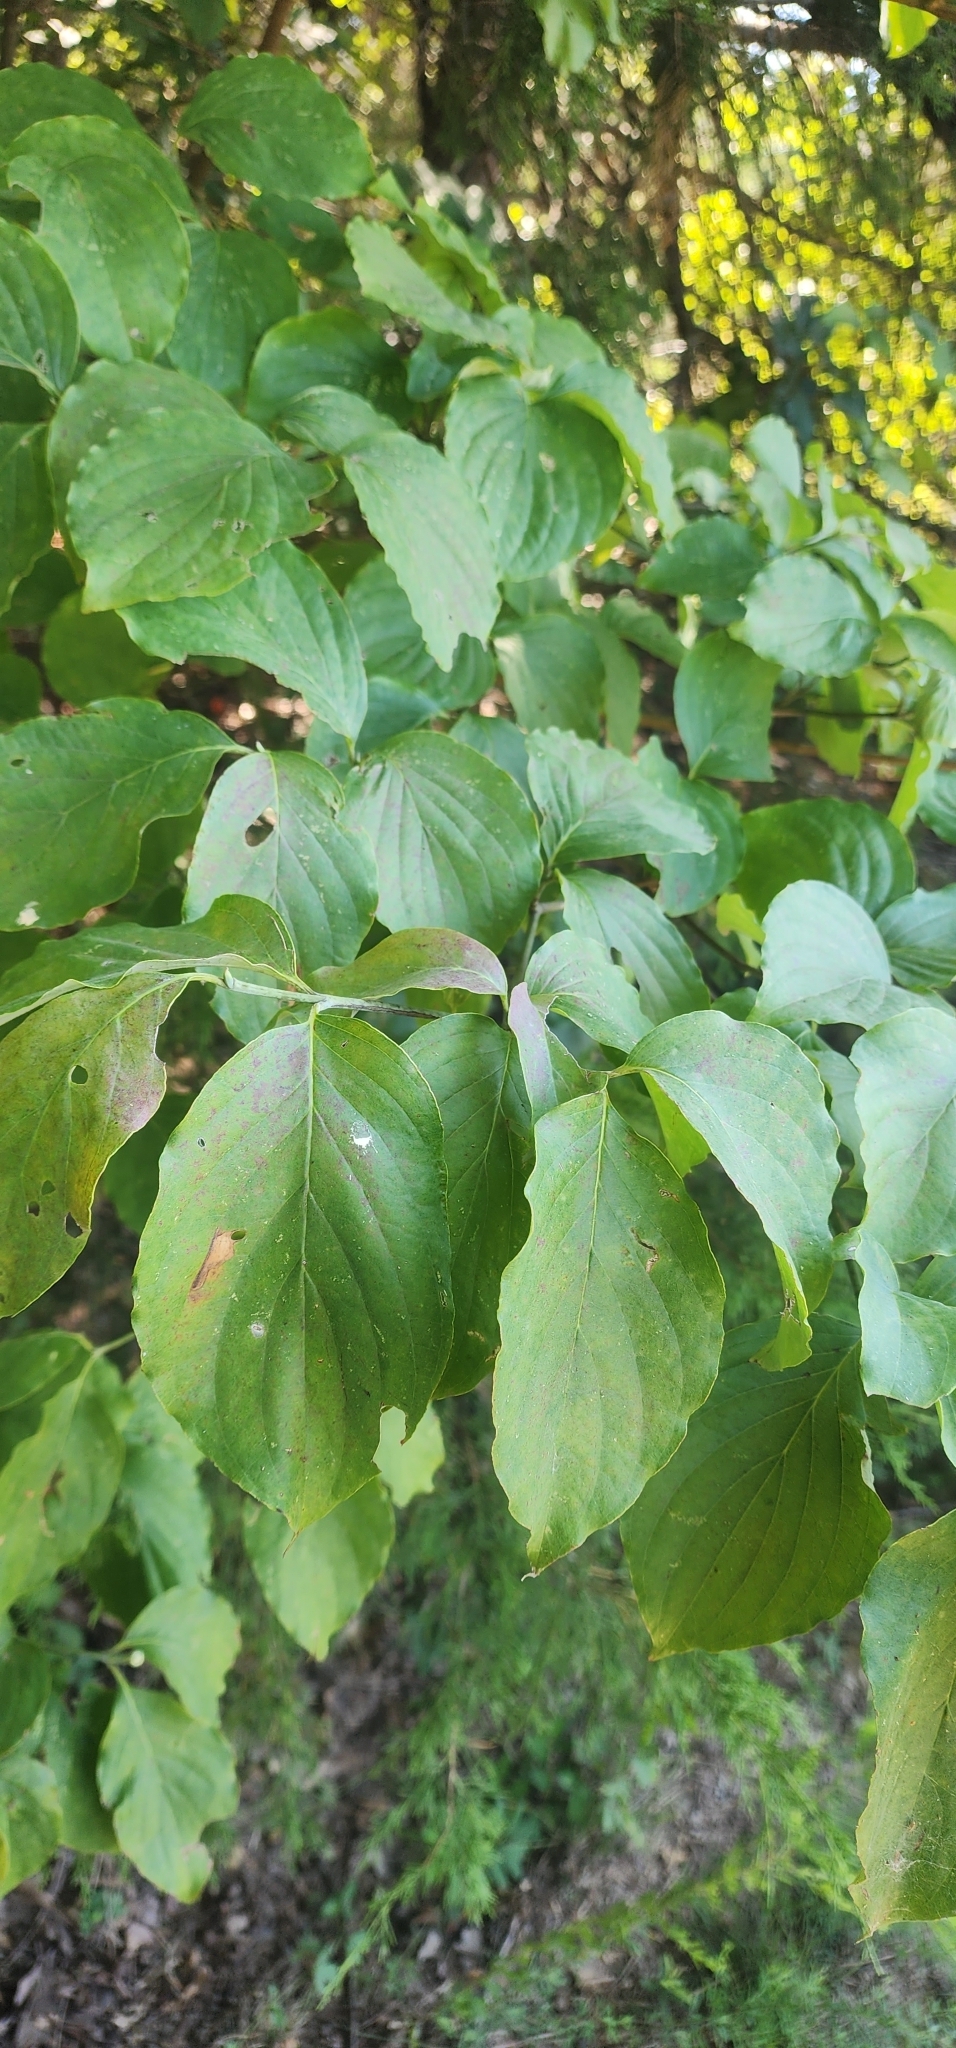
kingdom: Plantae
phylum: Tracheophyta
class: Magnoliopsida
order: Cornales
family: Cornaceae
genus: Cornus
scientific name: Cornus florida
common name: Flowering dogwood
